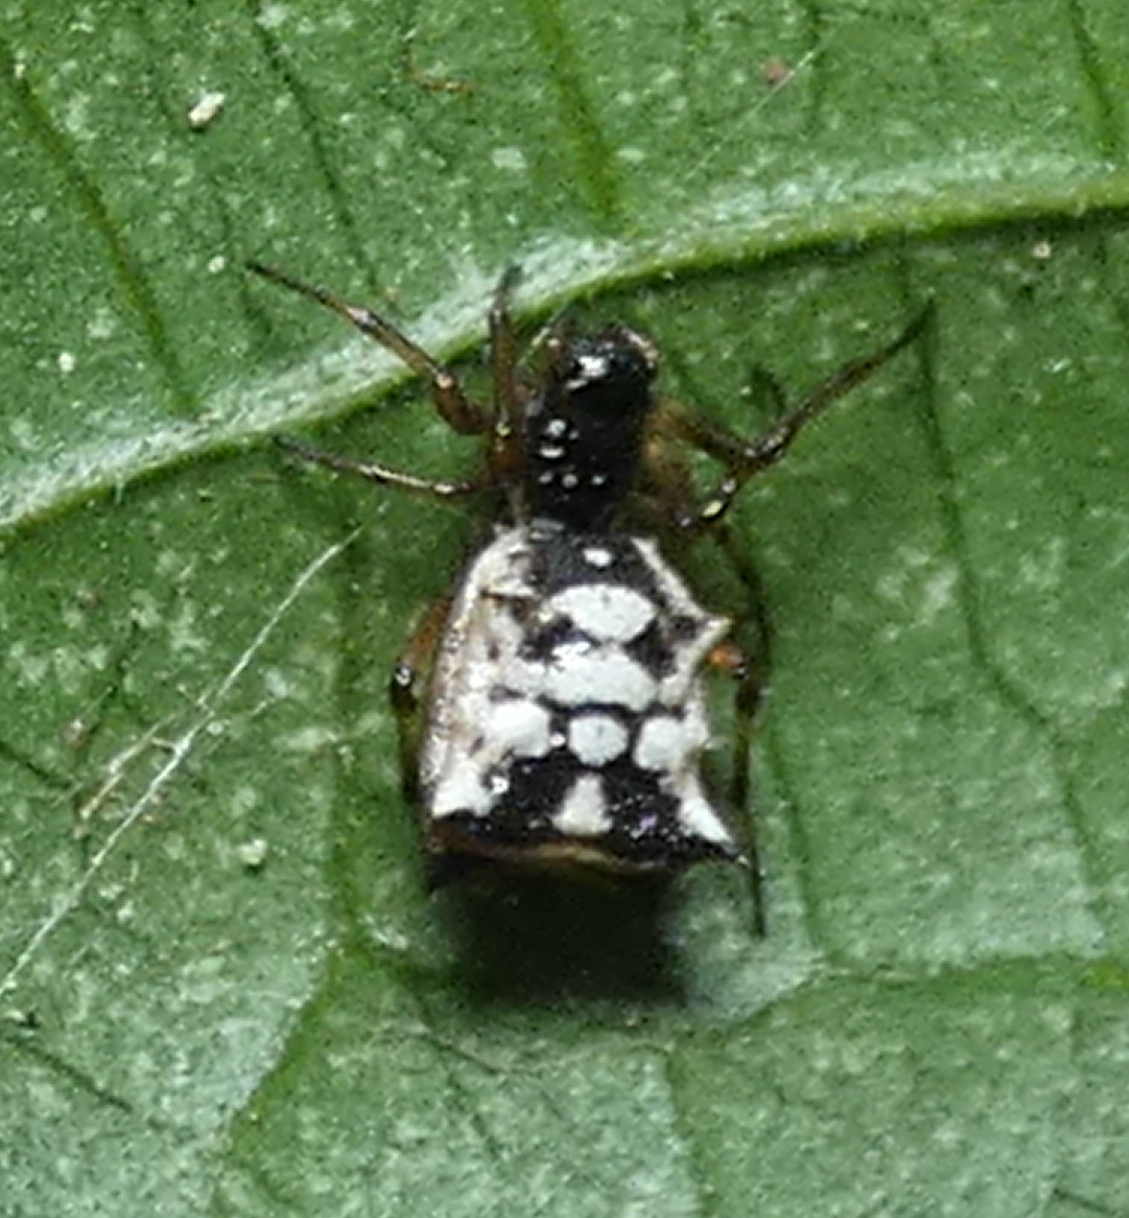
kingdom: Animalia
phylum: Arthropoda
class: Arachnida
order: Araneae
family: Araneidae
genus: Micrathena
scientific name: Micrathena picta
